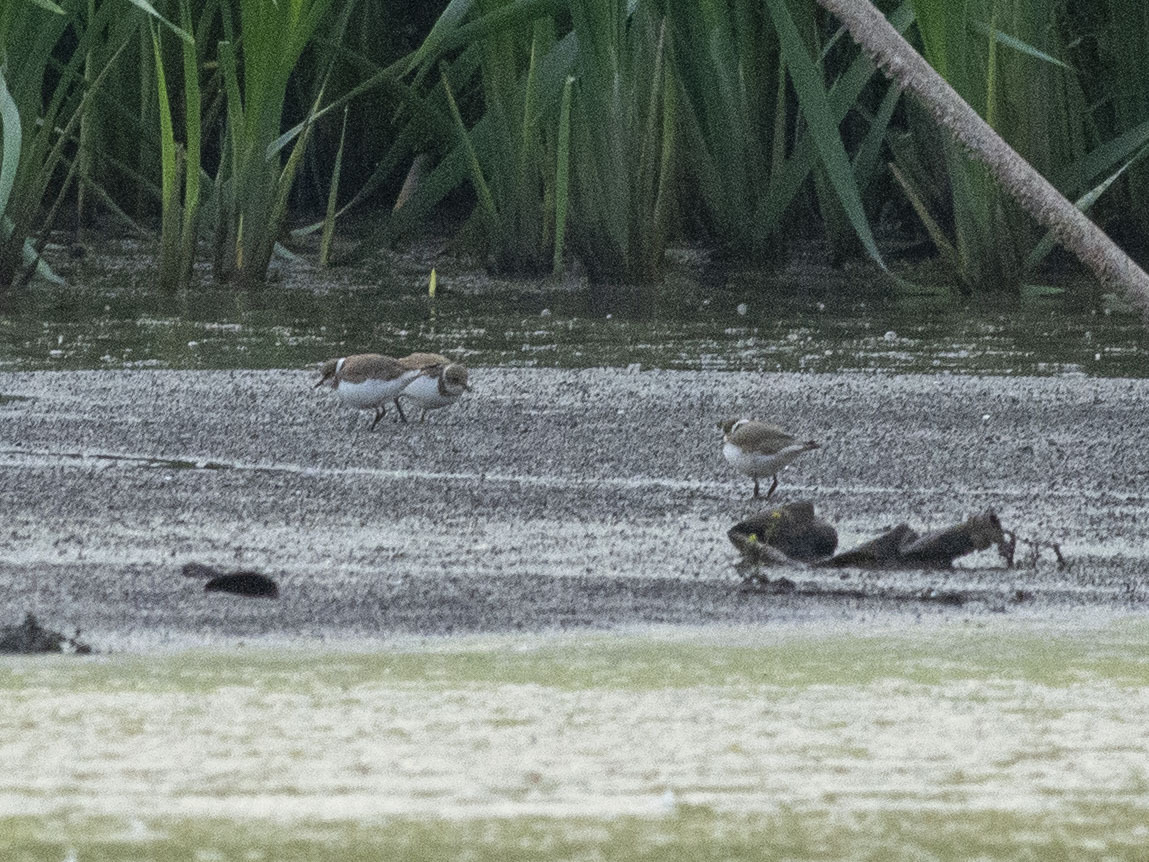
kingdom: Animalia
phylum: Chordata
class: Aves
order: Charadriiformes
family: Charadriidae
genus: Charadrius
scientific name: Charadrius dubius
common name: Little ringed plover
